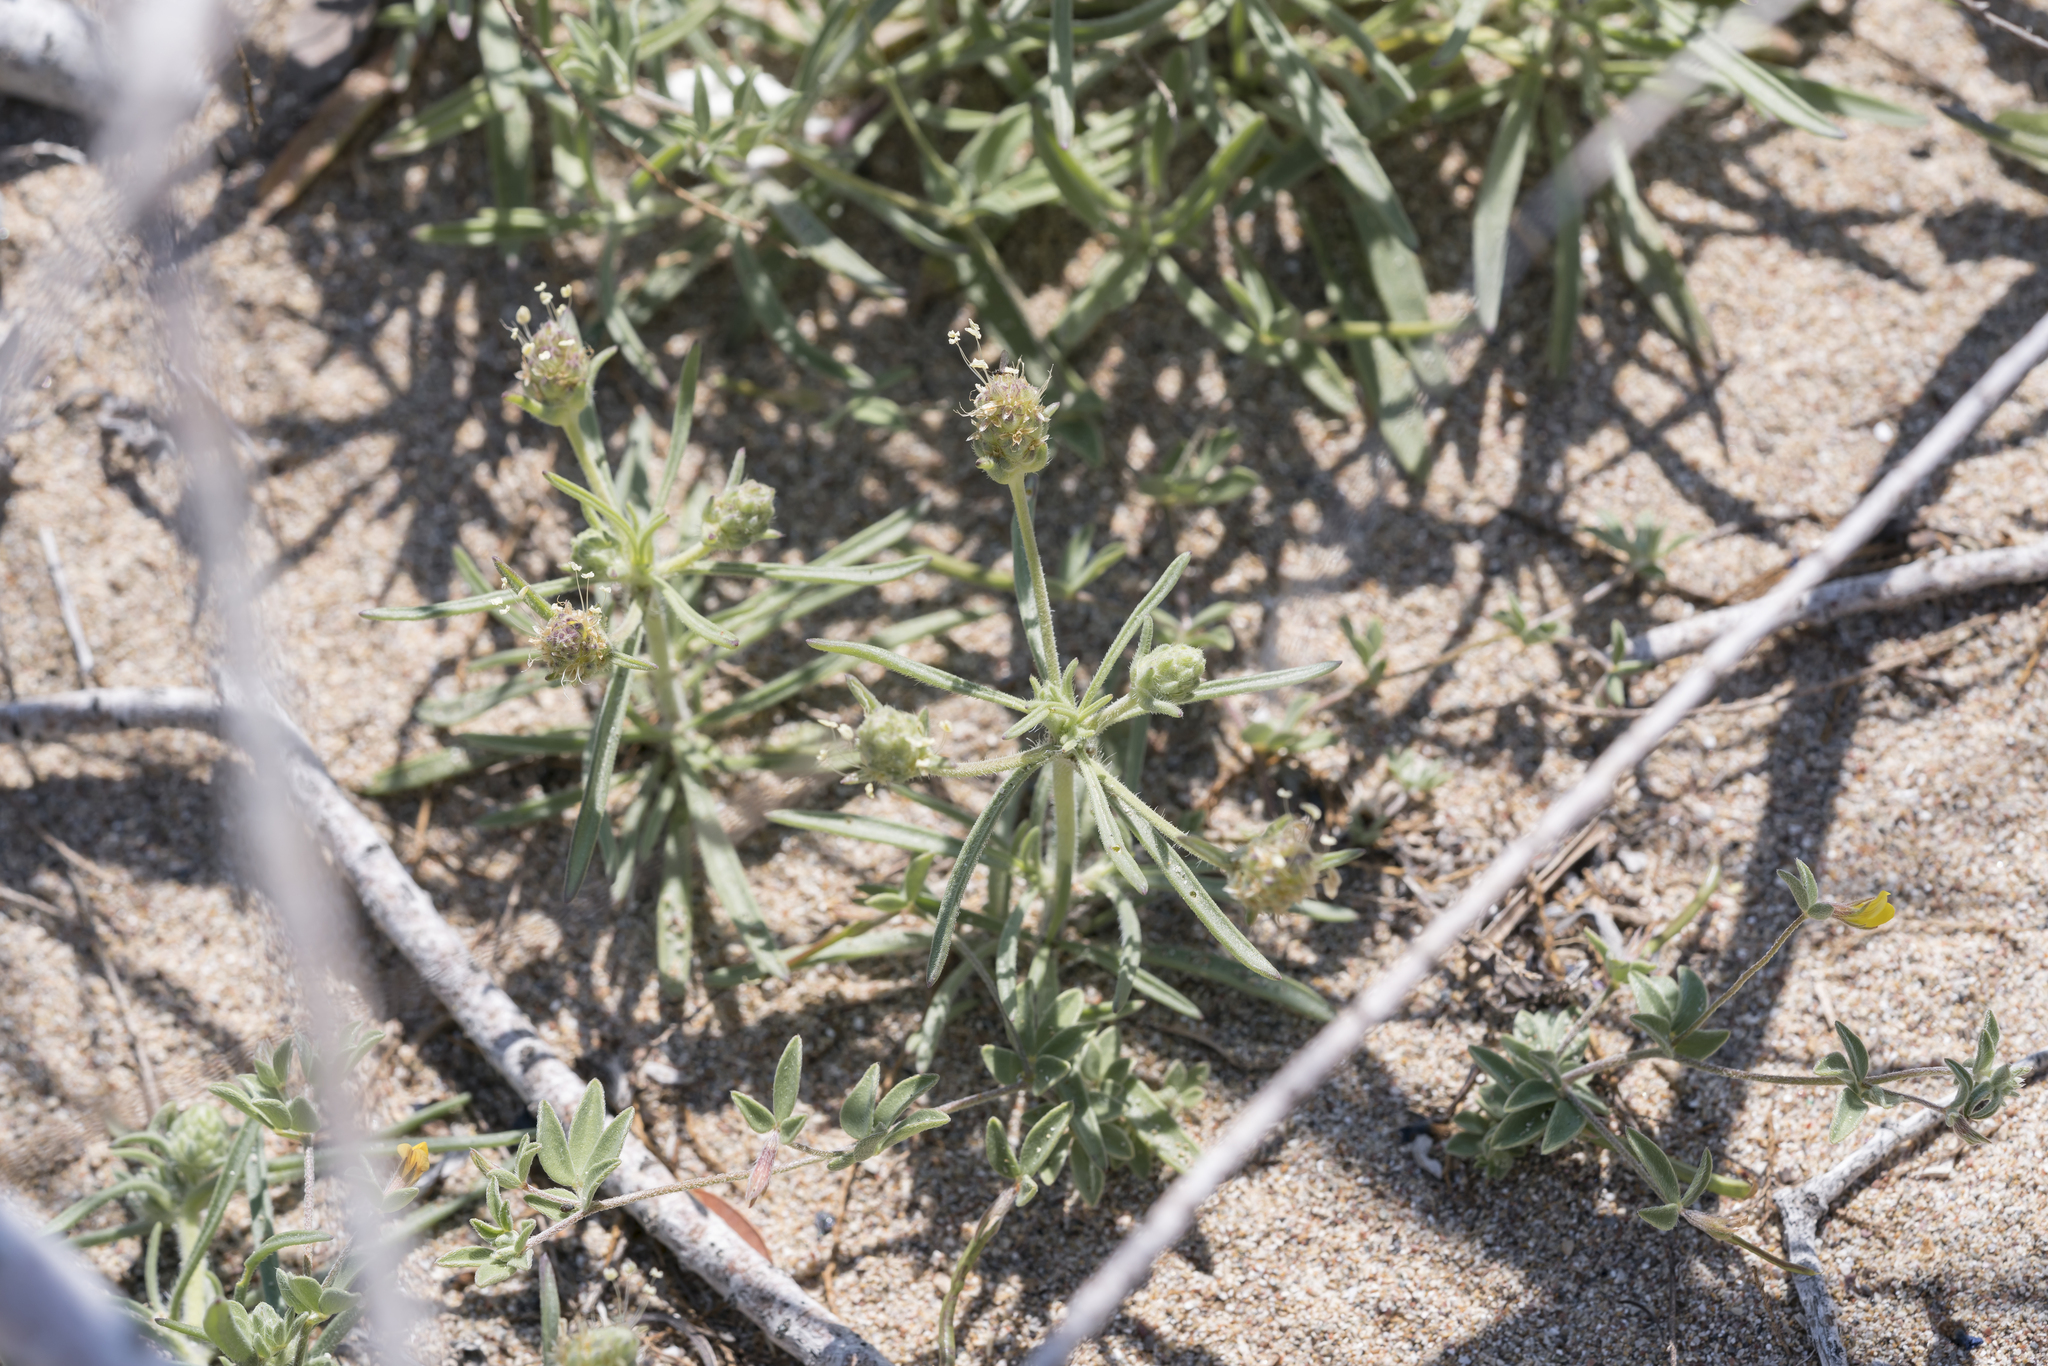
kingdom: Plantae
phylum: Tracheophyta
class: Magnoliopsida
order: Lamiales
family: Plantaginaceae
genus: Plantago
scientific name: Plantago arenaria
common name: Branched plantain
